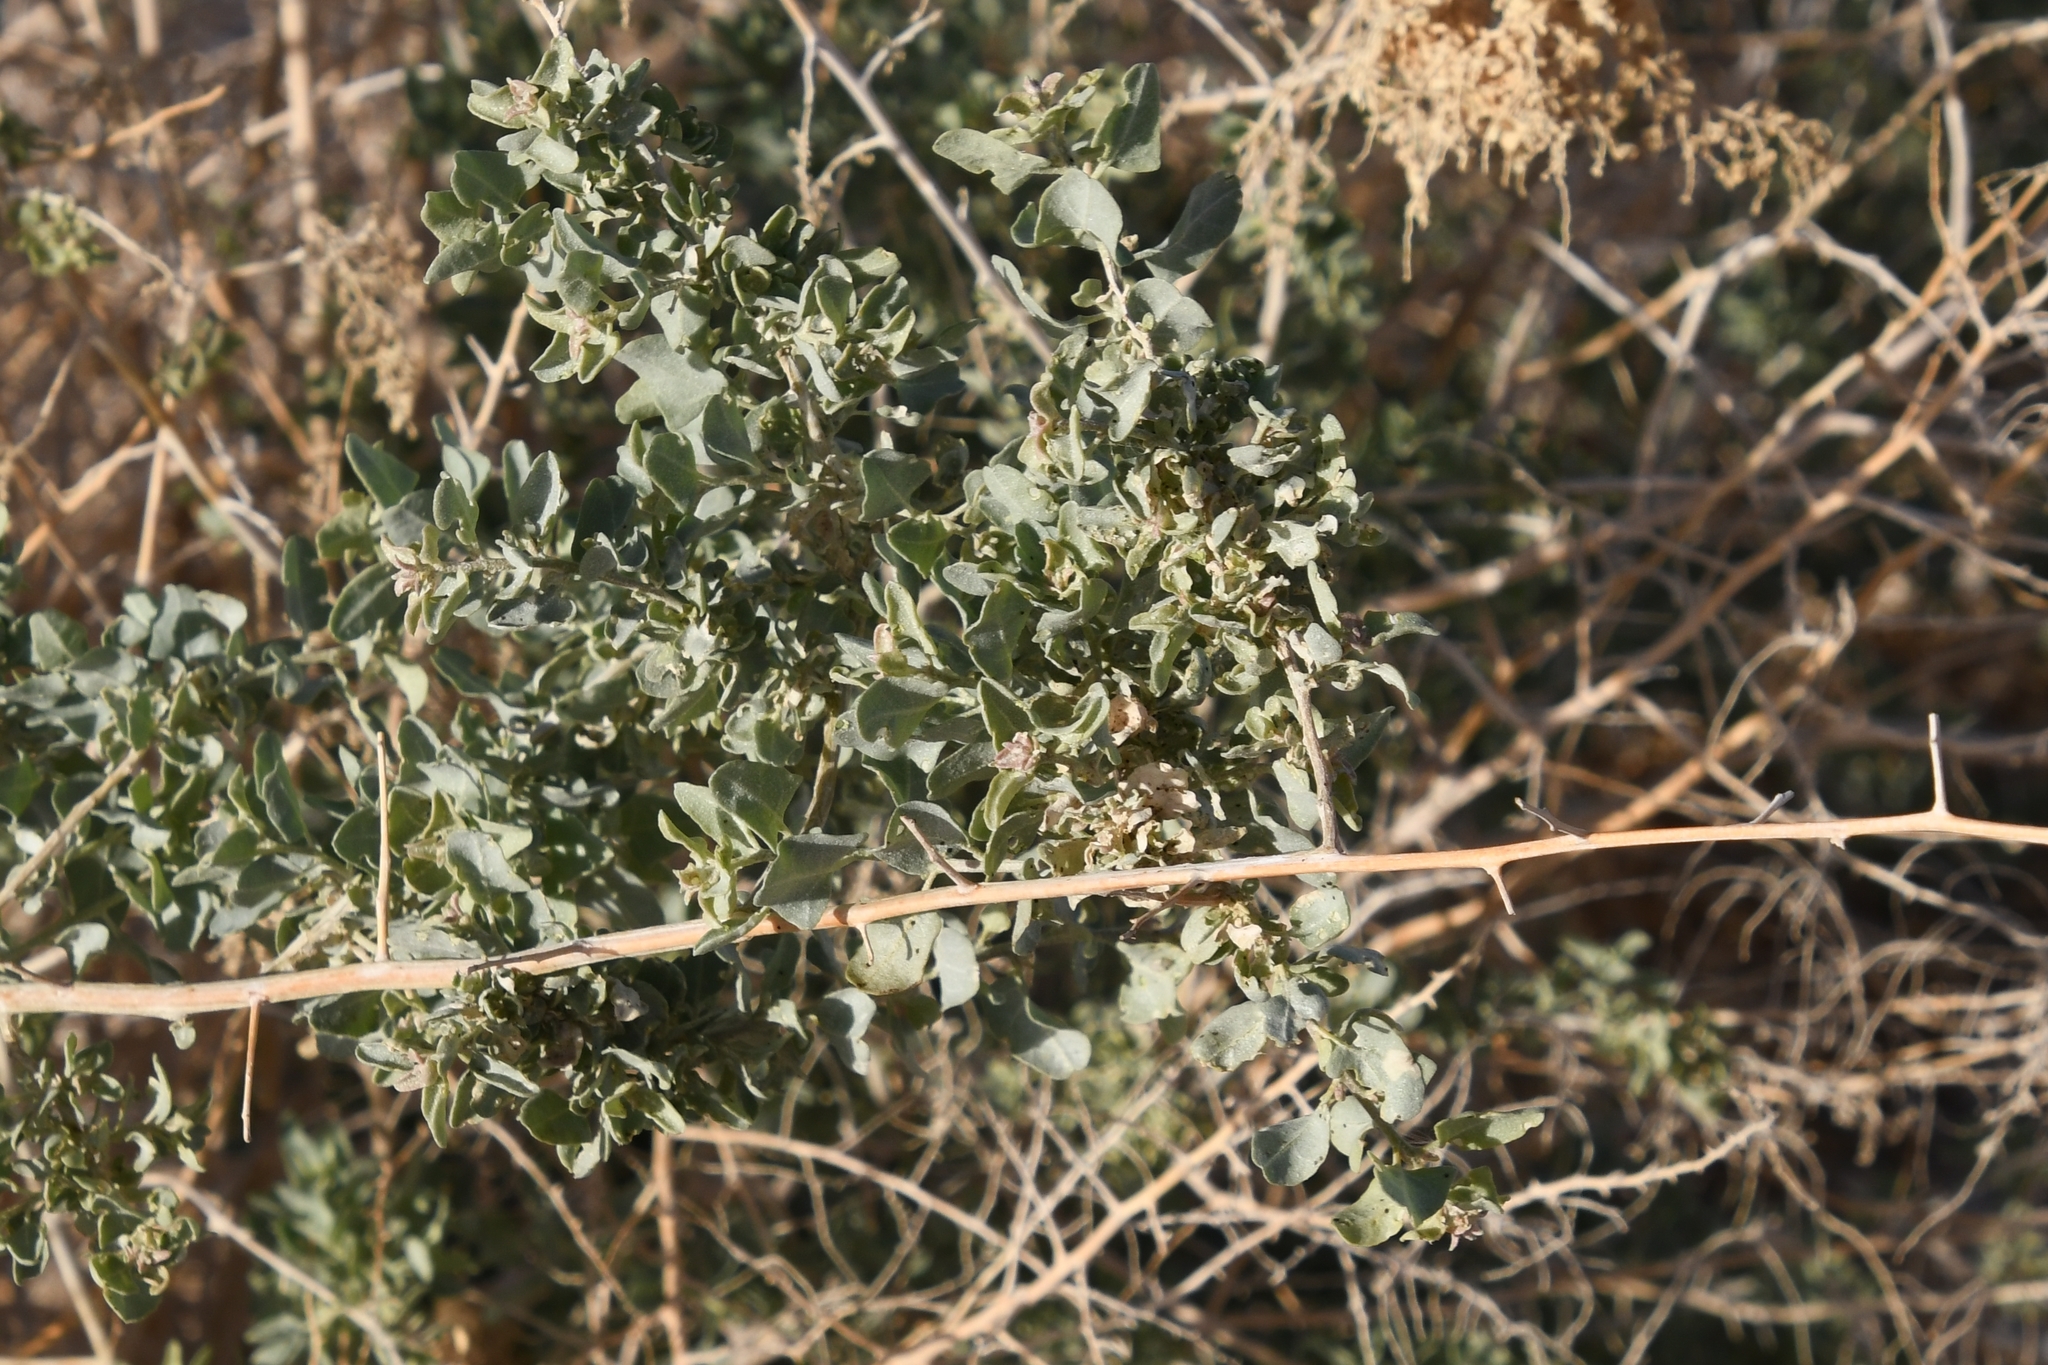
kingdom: Plantae
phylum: Tracheophyta
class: Magnoliopsida
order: Caryophyllales
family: Amaranthaceae
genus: Atriplex
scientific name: Atriplex lentiformis
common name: Big saltbush
